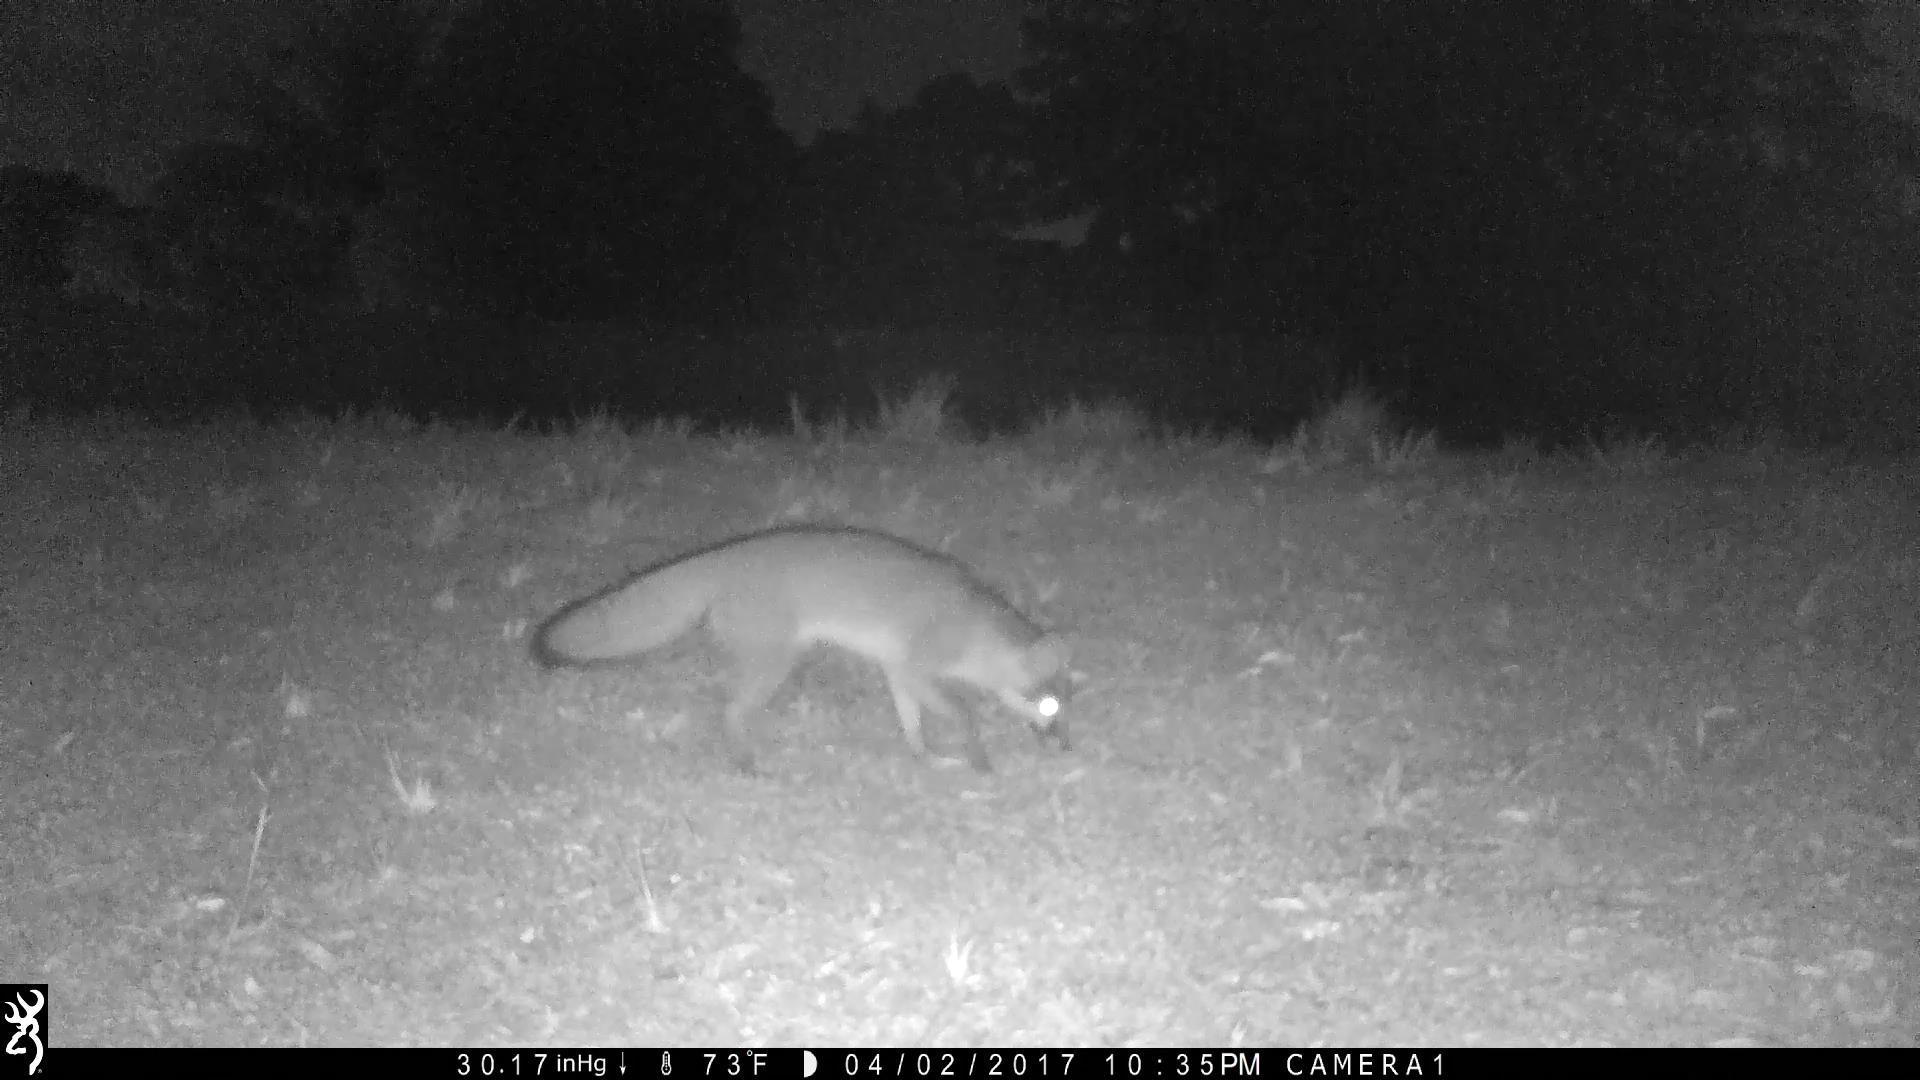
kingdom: Animalia
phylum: Chordata
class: Mammalia
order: Carnivora
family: Canidae
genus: Urocyon
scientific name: Urocyon cinereoargenteus
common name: Gray fox
